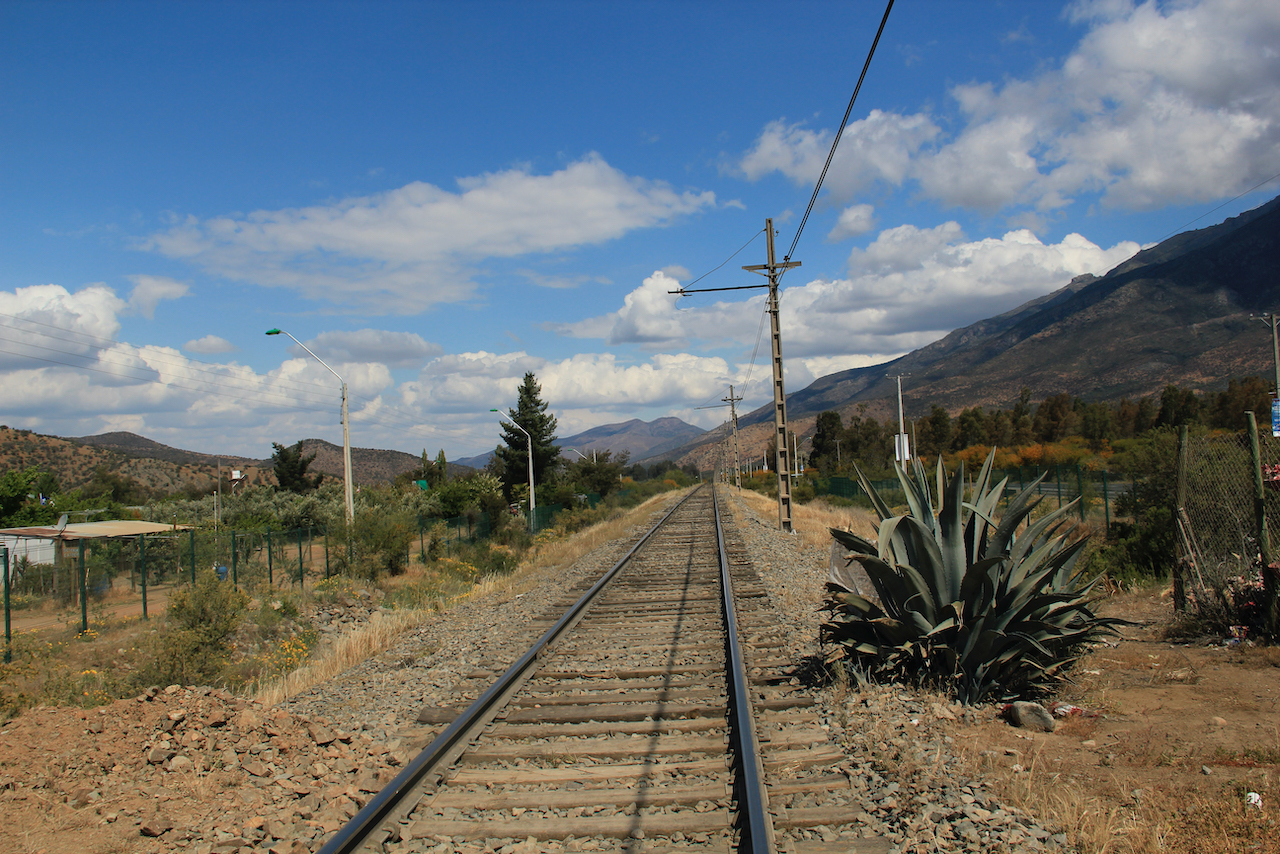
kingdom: Plantae
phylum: Tracheophyta
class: Liliopsida
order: Asparagales
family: Asparagaceae
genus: Agave
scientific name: Agave americana
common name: Centuryplant
